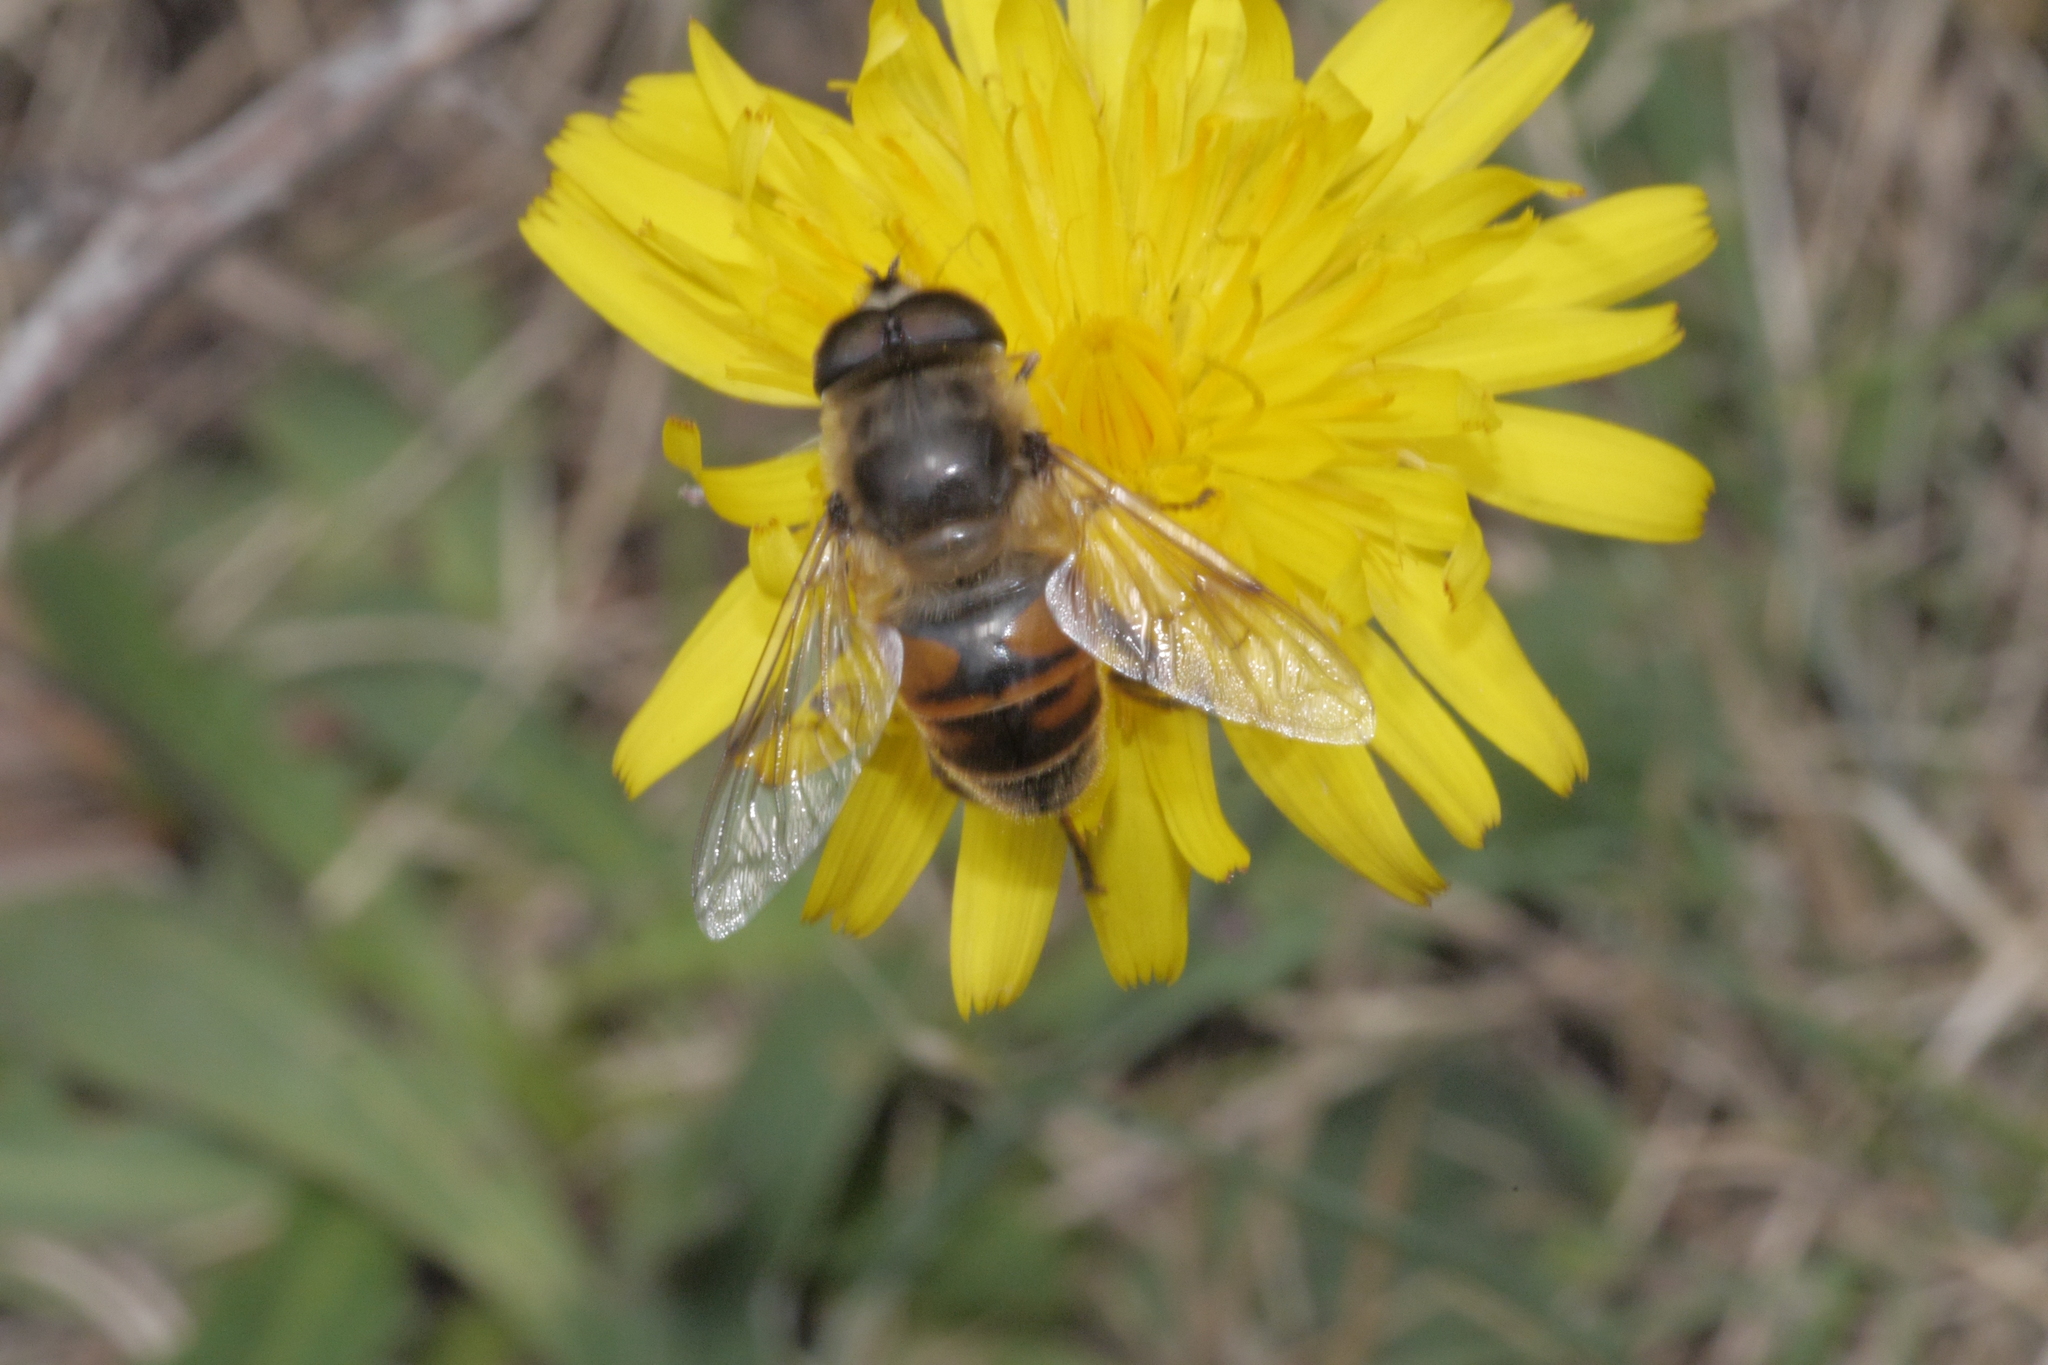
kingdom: Animalia
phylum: Arthropoda
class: Insecta
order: Diptera
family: Syrphidae
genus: Eristalis
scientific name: Eristalis tenax
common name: Drone fly
